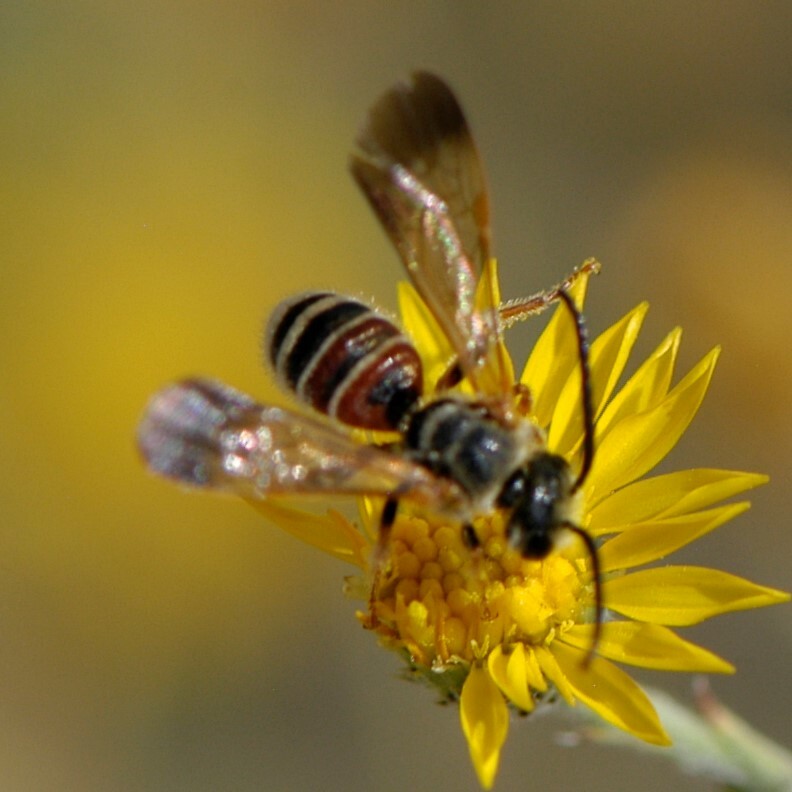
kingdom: Animalia
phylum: Arthropoda
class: Insecta
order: Hymenoptera
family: Halictidae
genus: Dieunomia
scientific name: Dieunomia nevadensis
